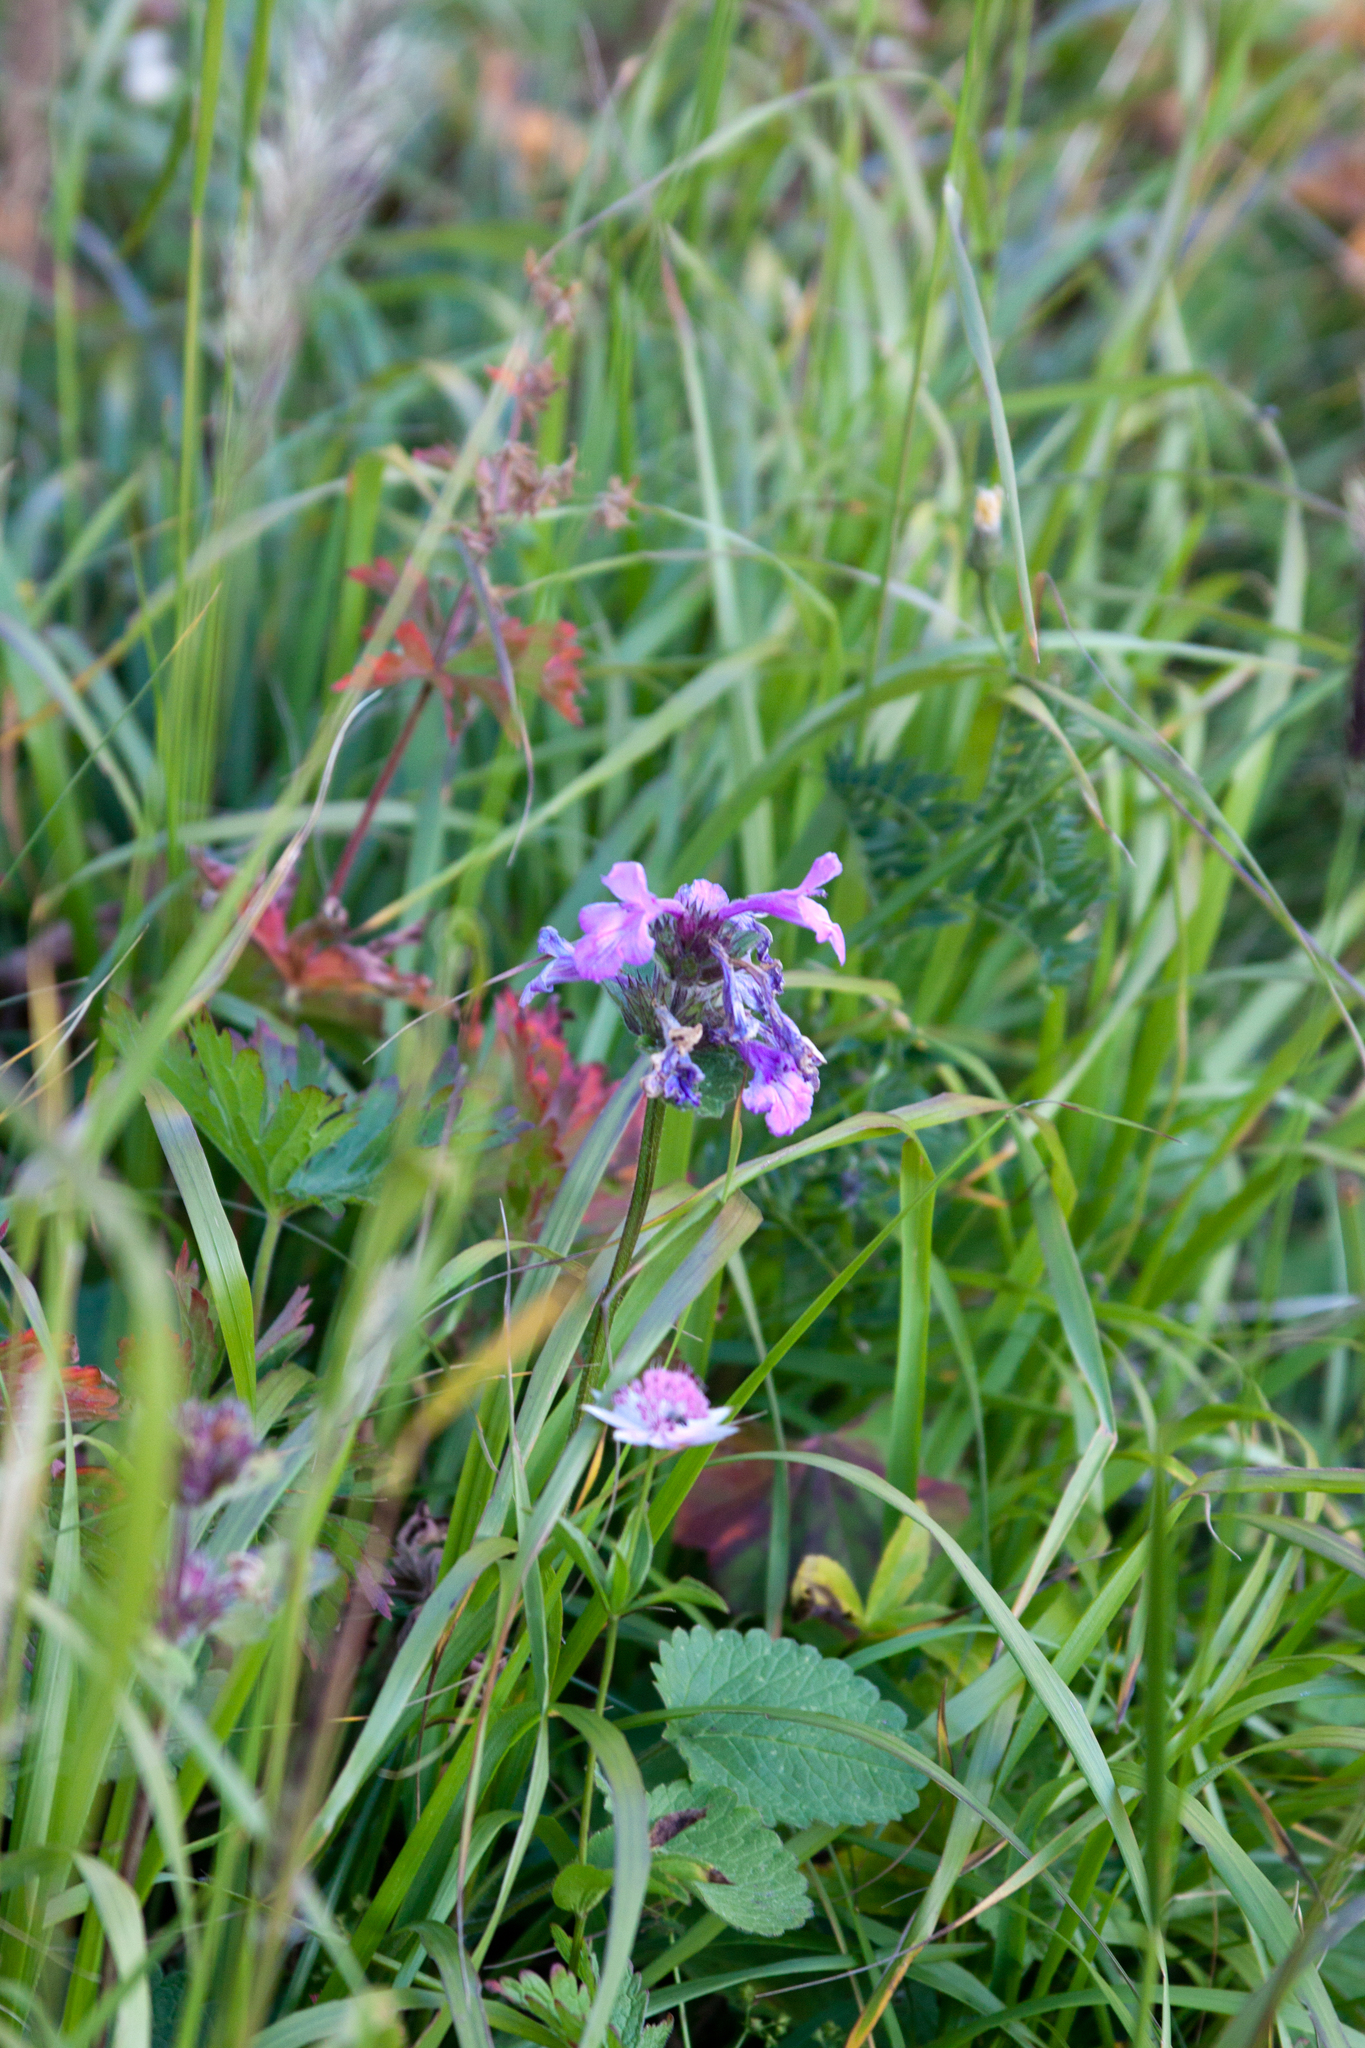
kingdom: Plantae
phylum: Tracheophyta
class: Magnoliopsida
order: Lamiales
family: Lamiaceae
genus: Betonica
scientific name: Betonica macrantha
